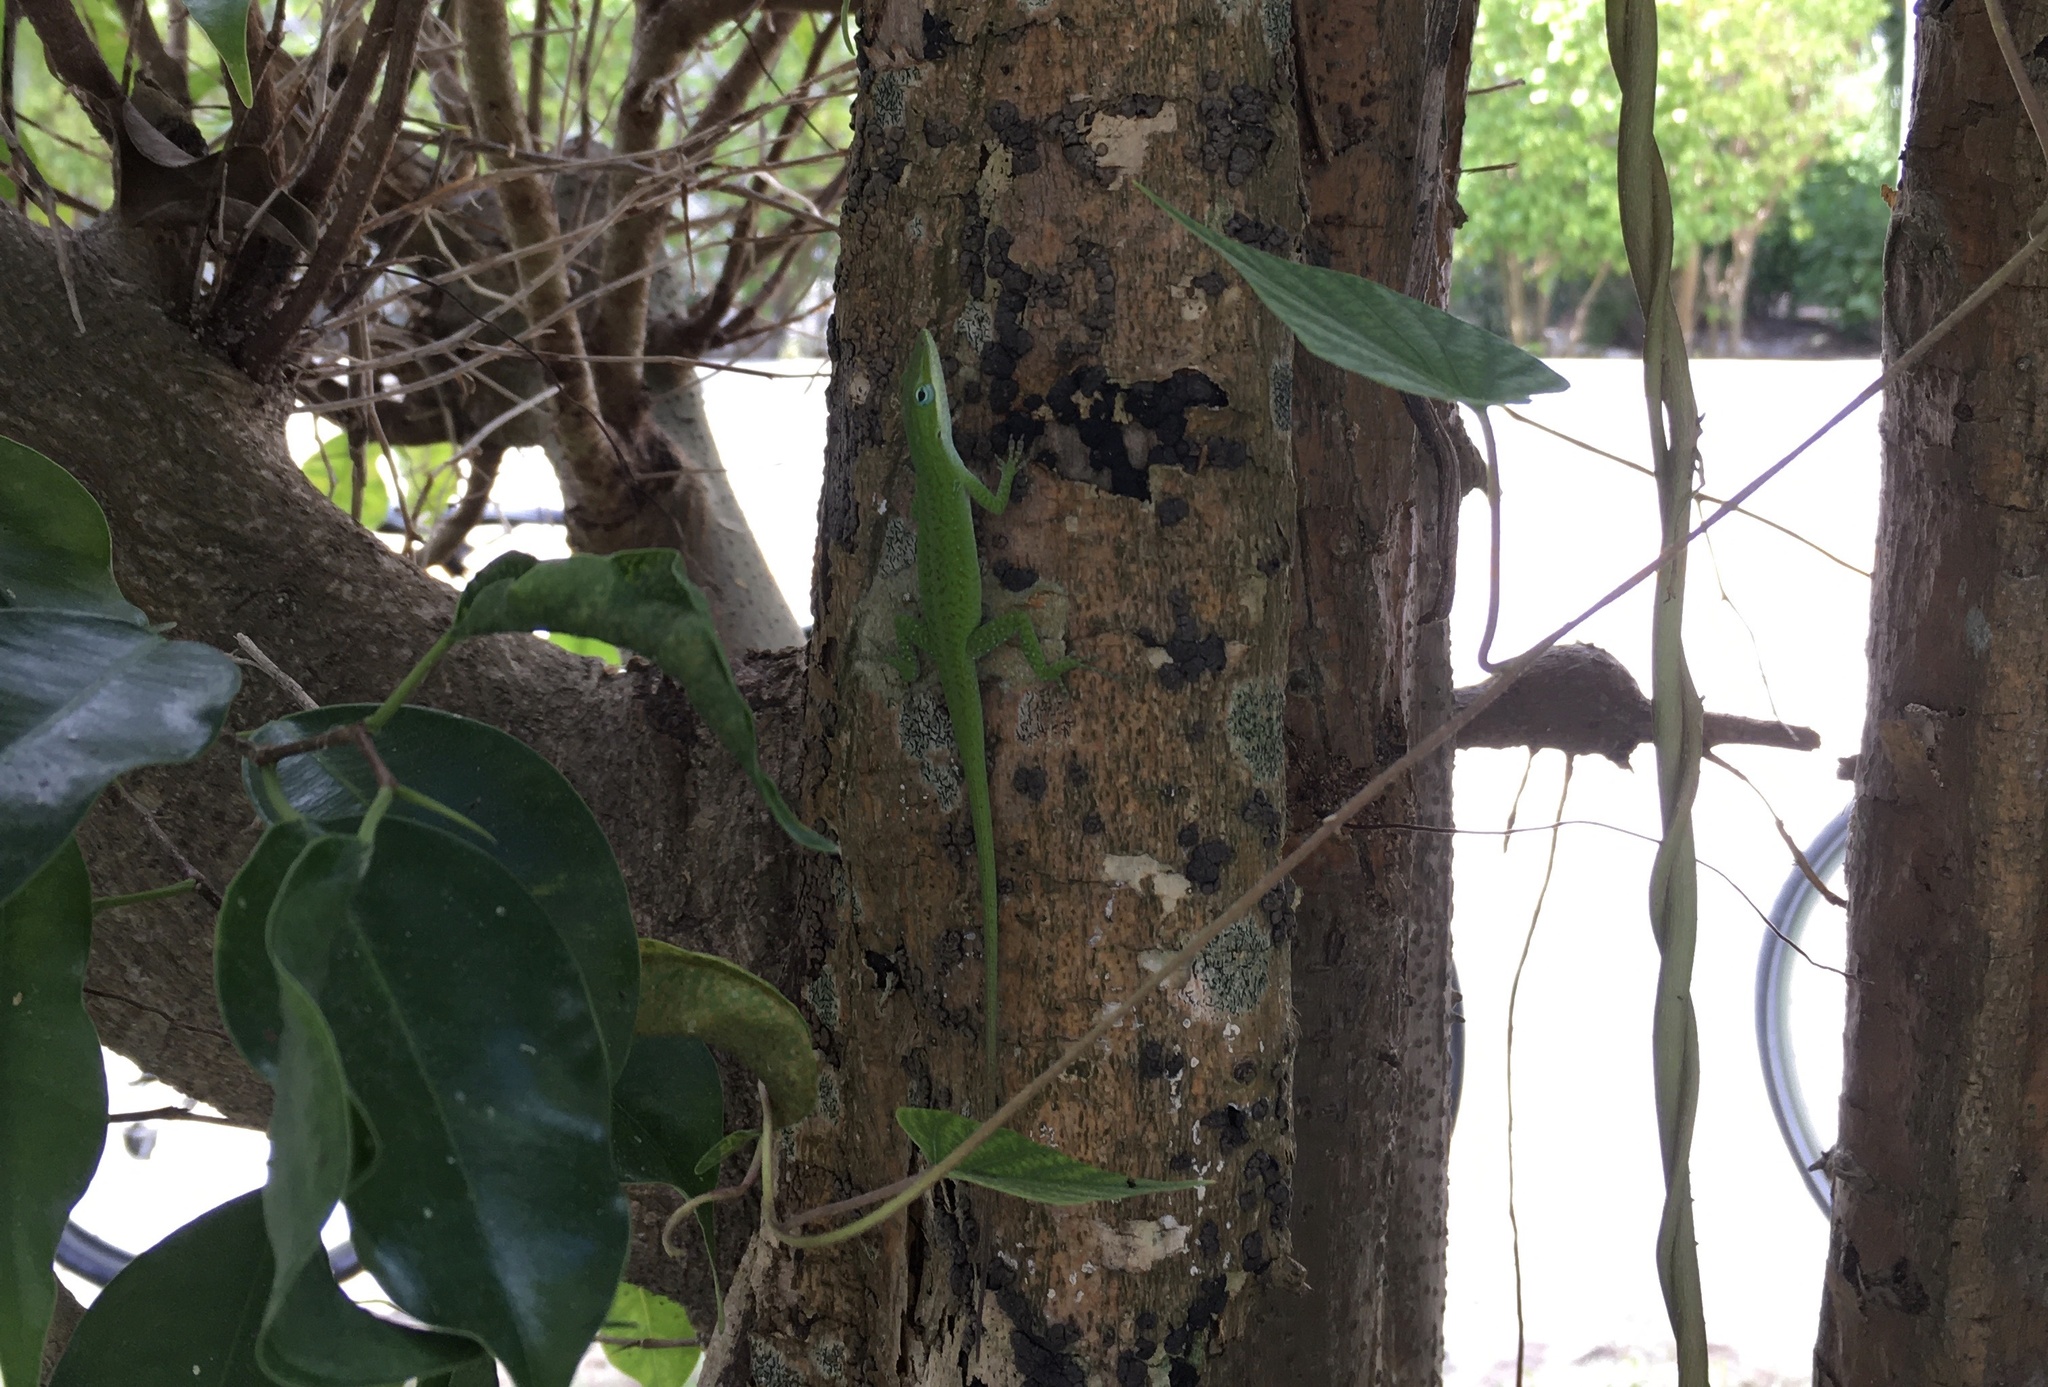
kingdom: Animalia
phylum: Chordata
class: Squamata
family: Dactyloidae
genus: Anolis
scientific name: Anolis carolinensis
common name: Green anole
